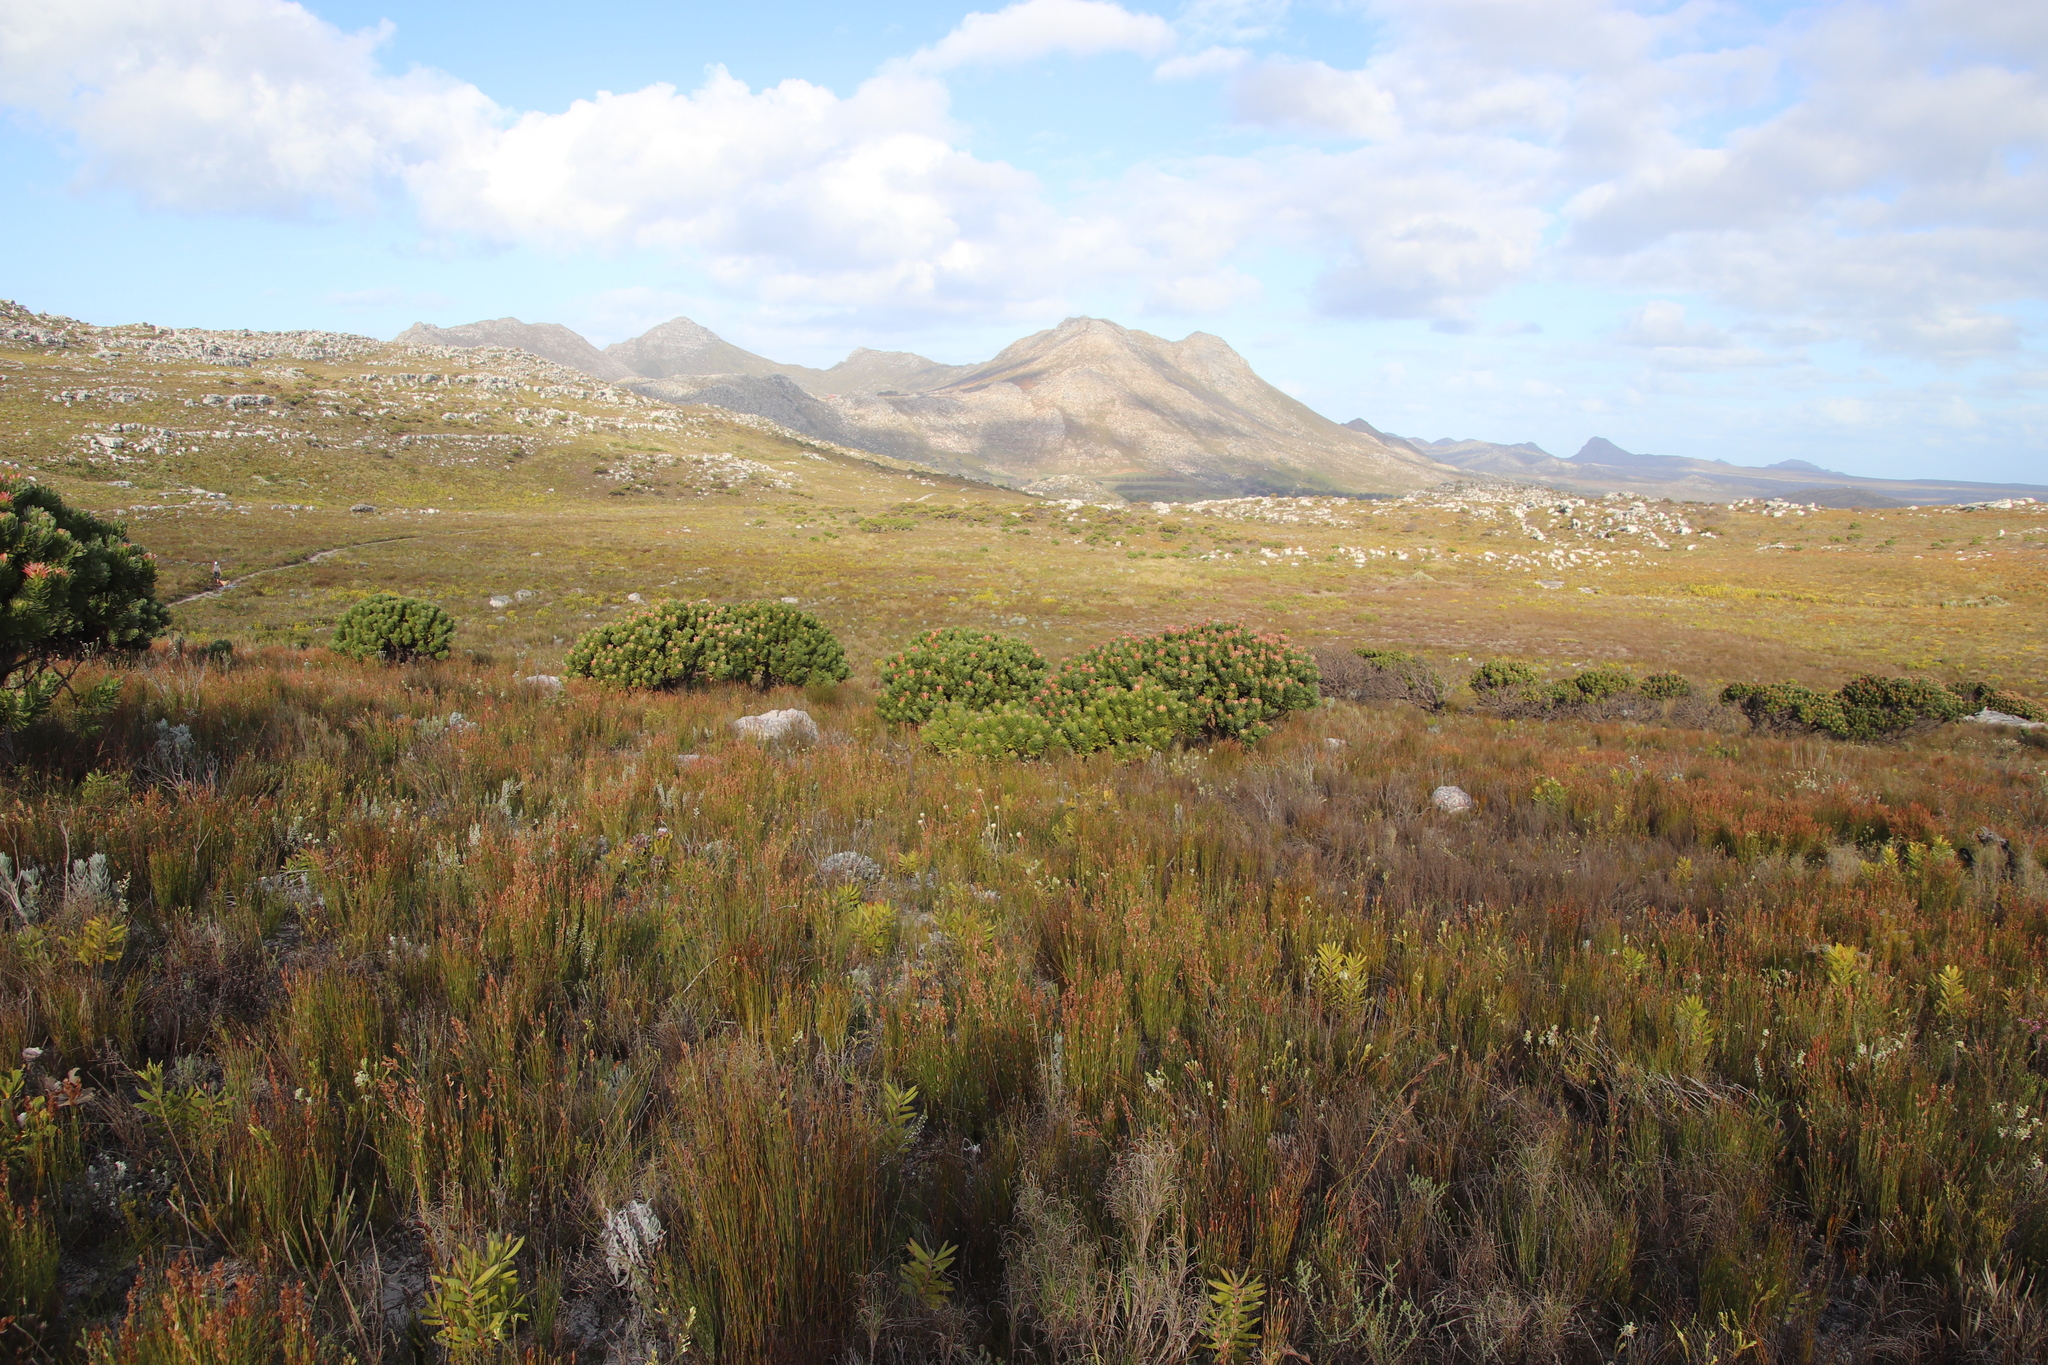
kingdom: Plantae
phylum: Tracheophyta
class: Magnoliopsida
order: Proteales
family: Proteaceae
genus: Mimetes
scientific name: Mimetes fimbriifolius
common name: Fringed bottlebrush
